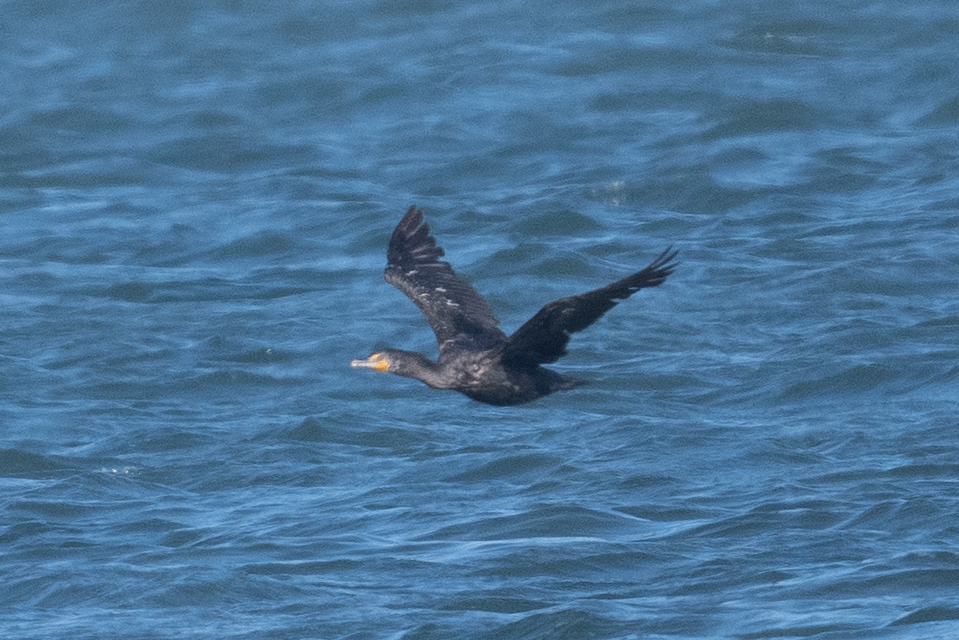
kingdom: Animalia
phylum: Chordata
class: Aves
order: Suliformes
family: Phalacrocoracidae
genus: Phalacrocorax
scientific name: Phalacrocorax auritus
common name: Double-crested cormorant
